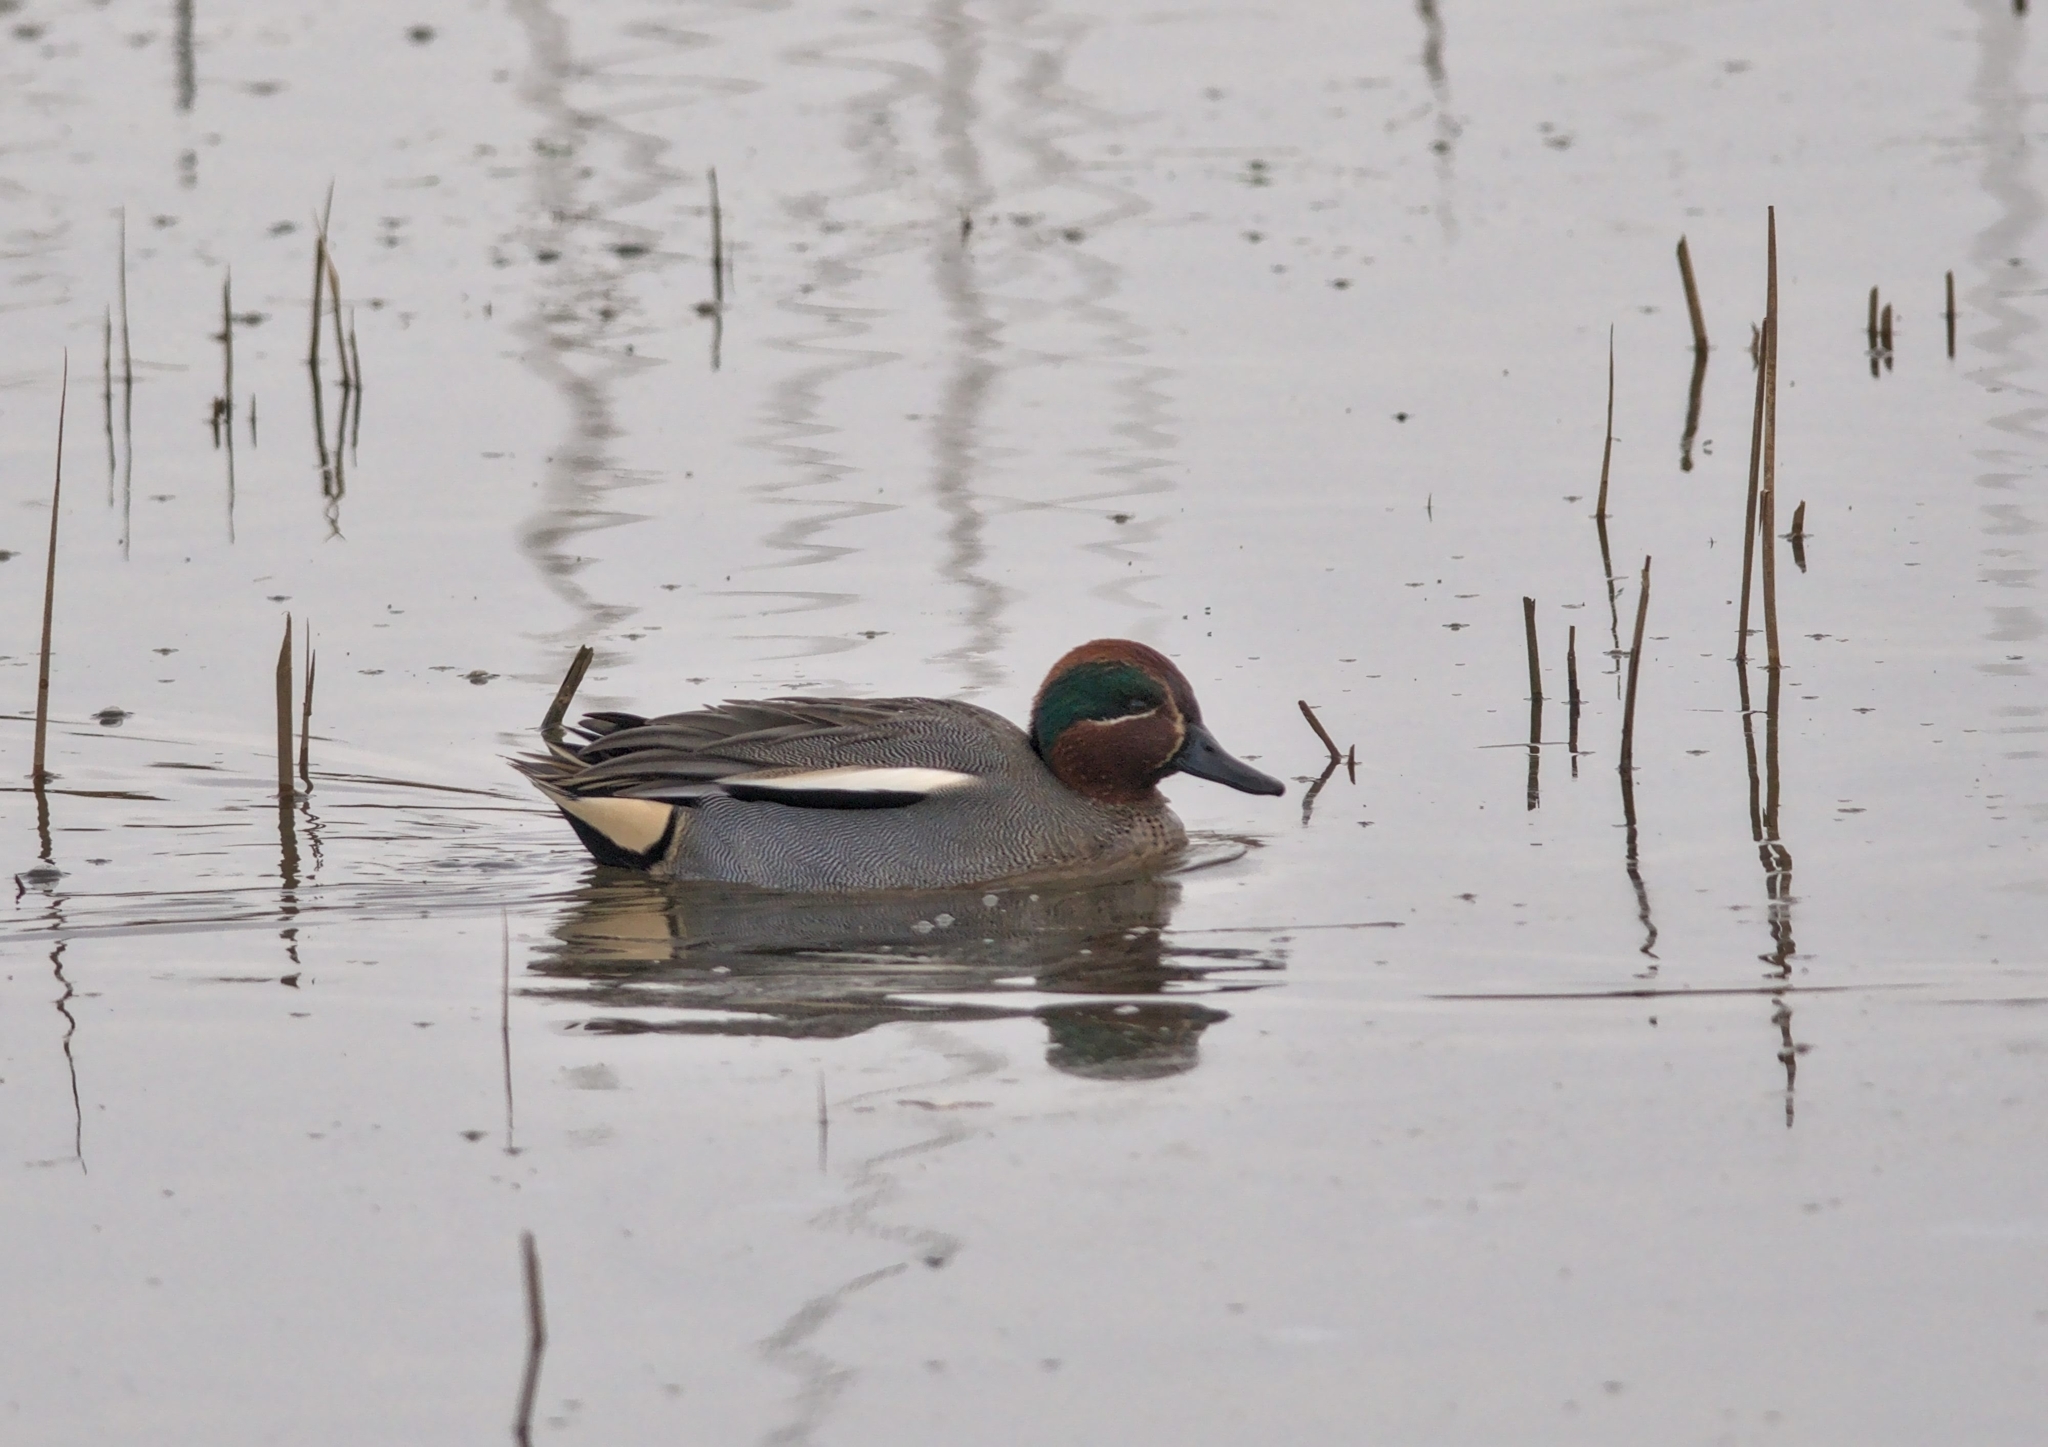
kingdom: Animalia
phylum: Chordata
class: Aves
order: Anseriformes
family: Anatidae
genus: Anas
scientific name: Anas crecca
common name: Eurasian teal
